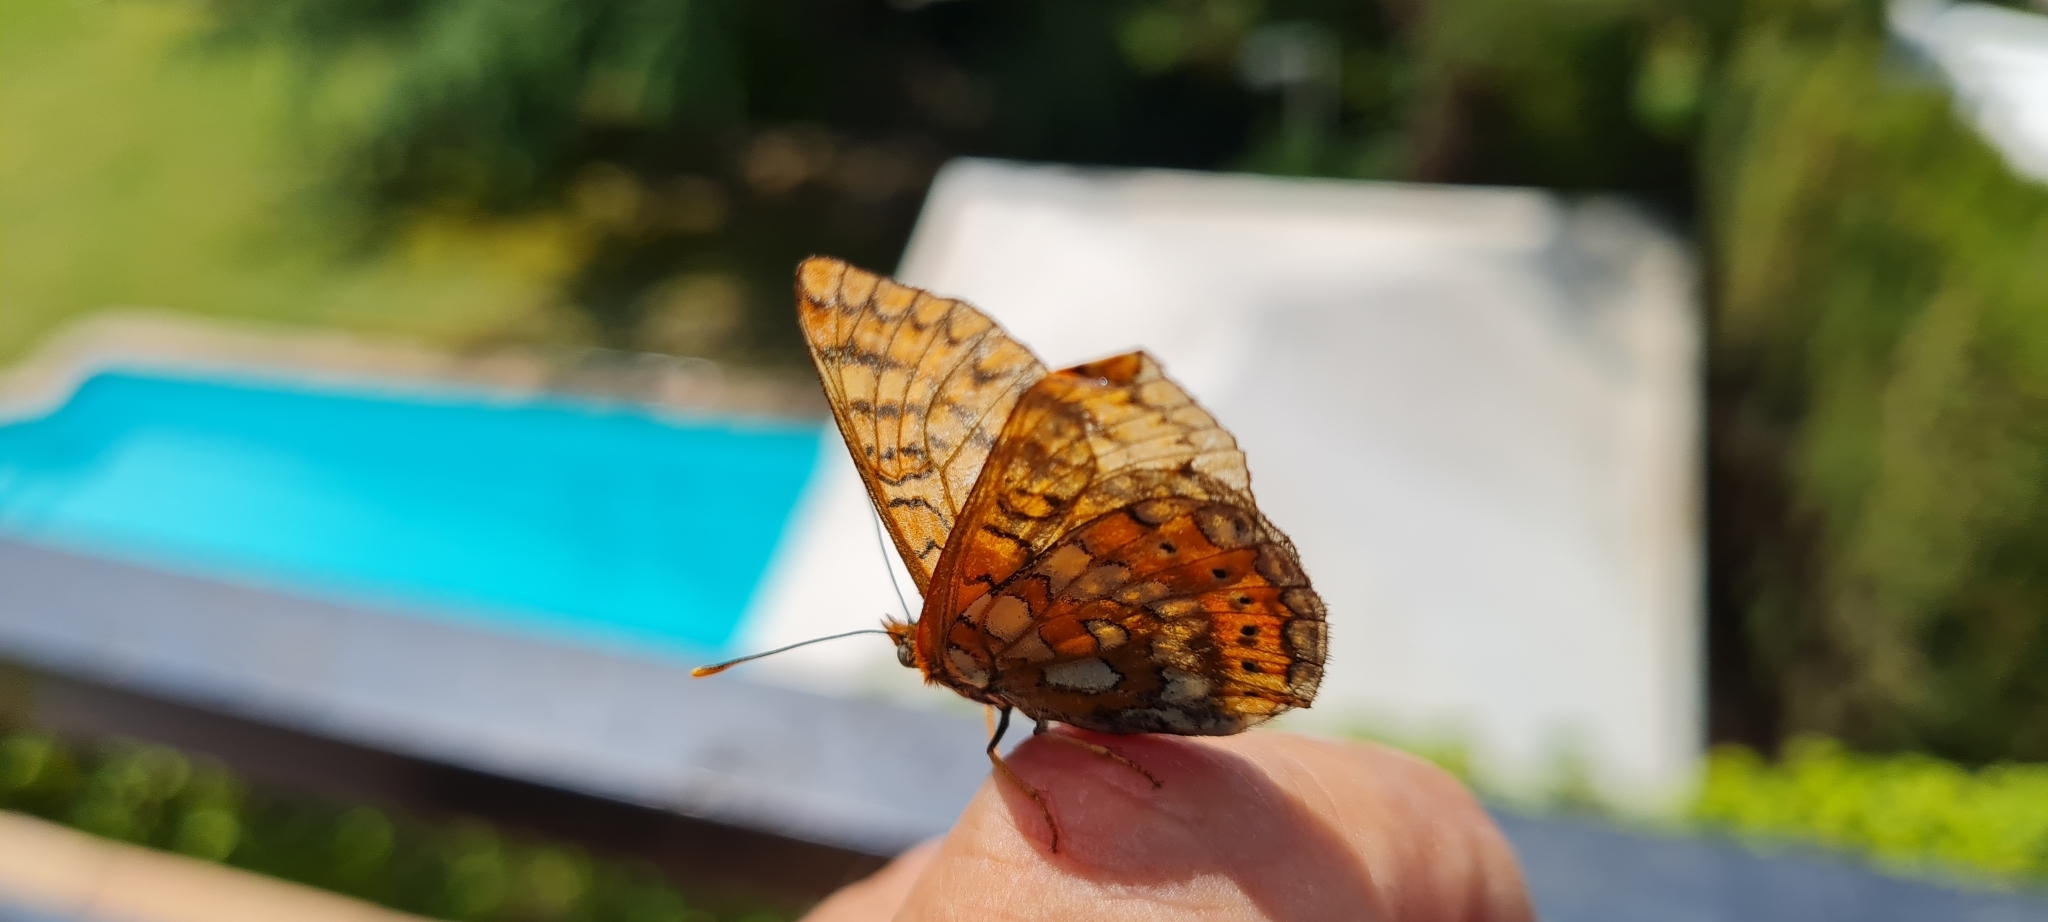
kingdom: Animalia
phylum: Arthropoda
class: Insecta
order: Lepidoptera
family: Nymphalidae
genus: Euphydryas
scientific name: Euphydryas aurinia
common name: Marsh fritillary
